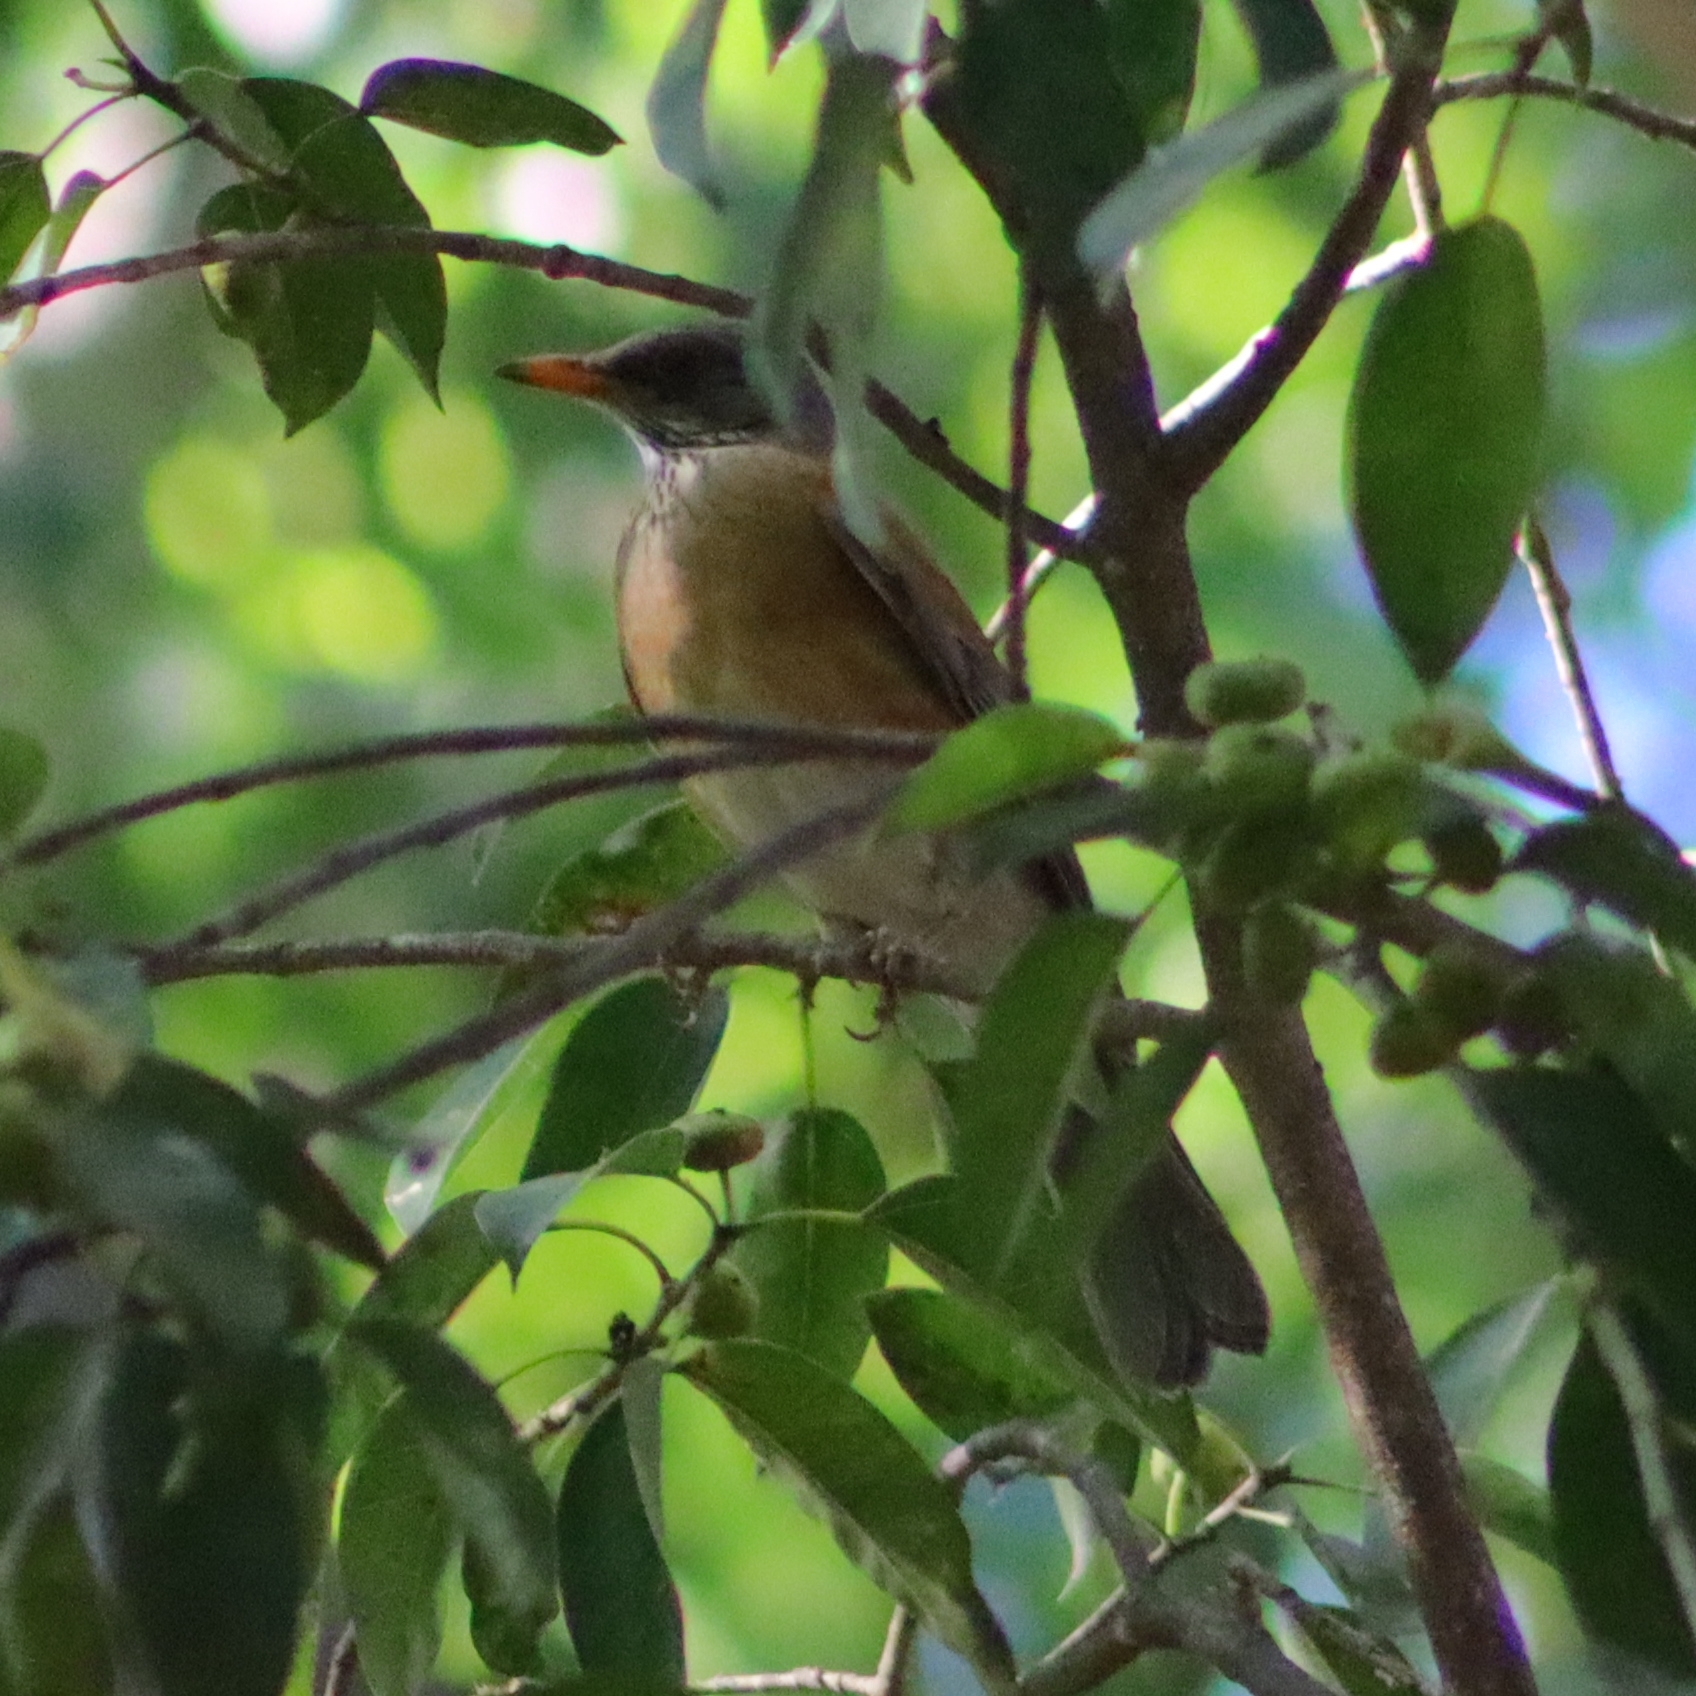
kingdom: Animalia
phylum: Chordata
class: Aves
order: Passeriformes
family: Turdidae
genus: Turdus
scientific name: Turdus rufopalliatus
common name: Rufous-backed robin
